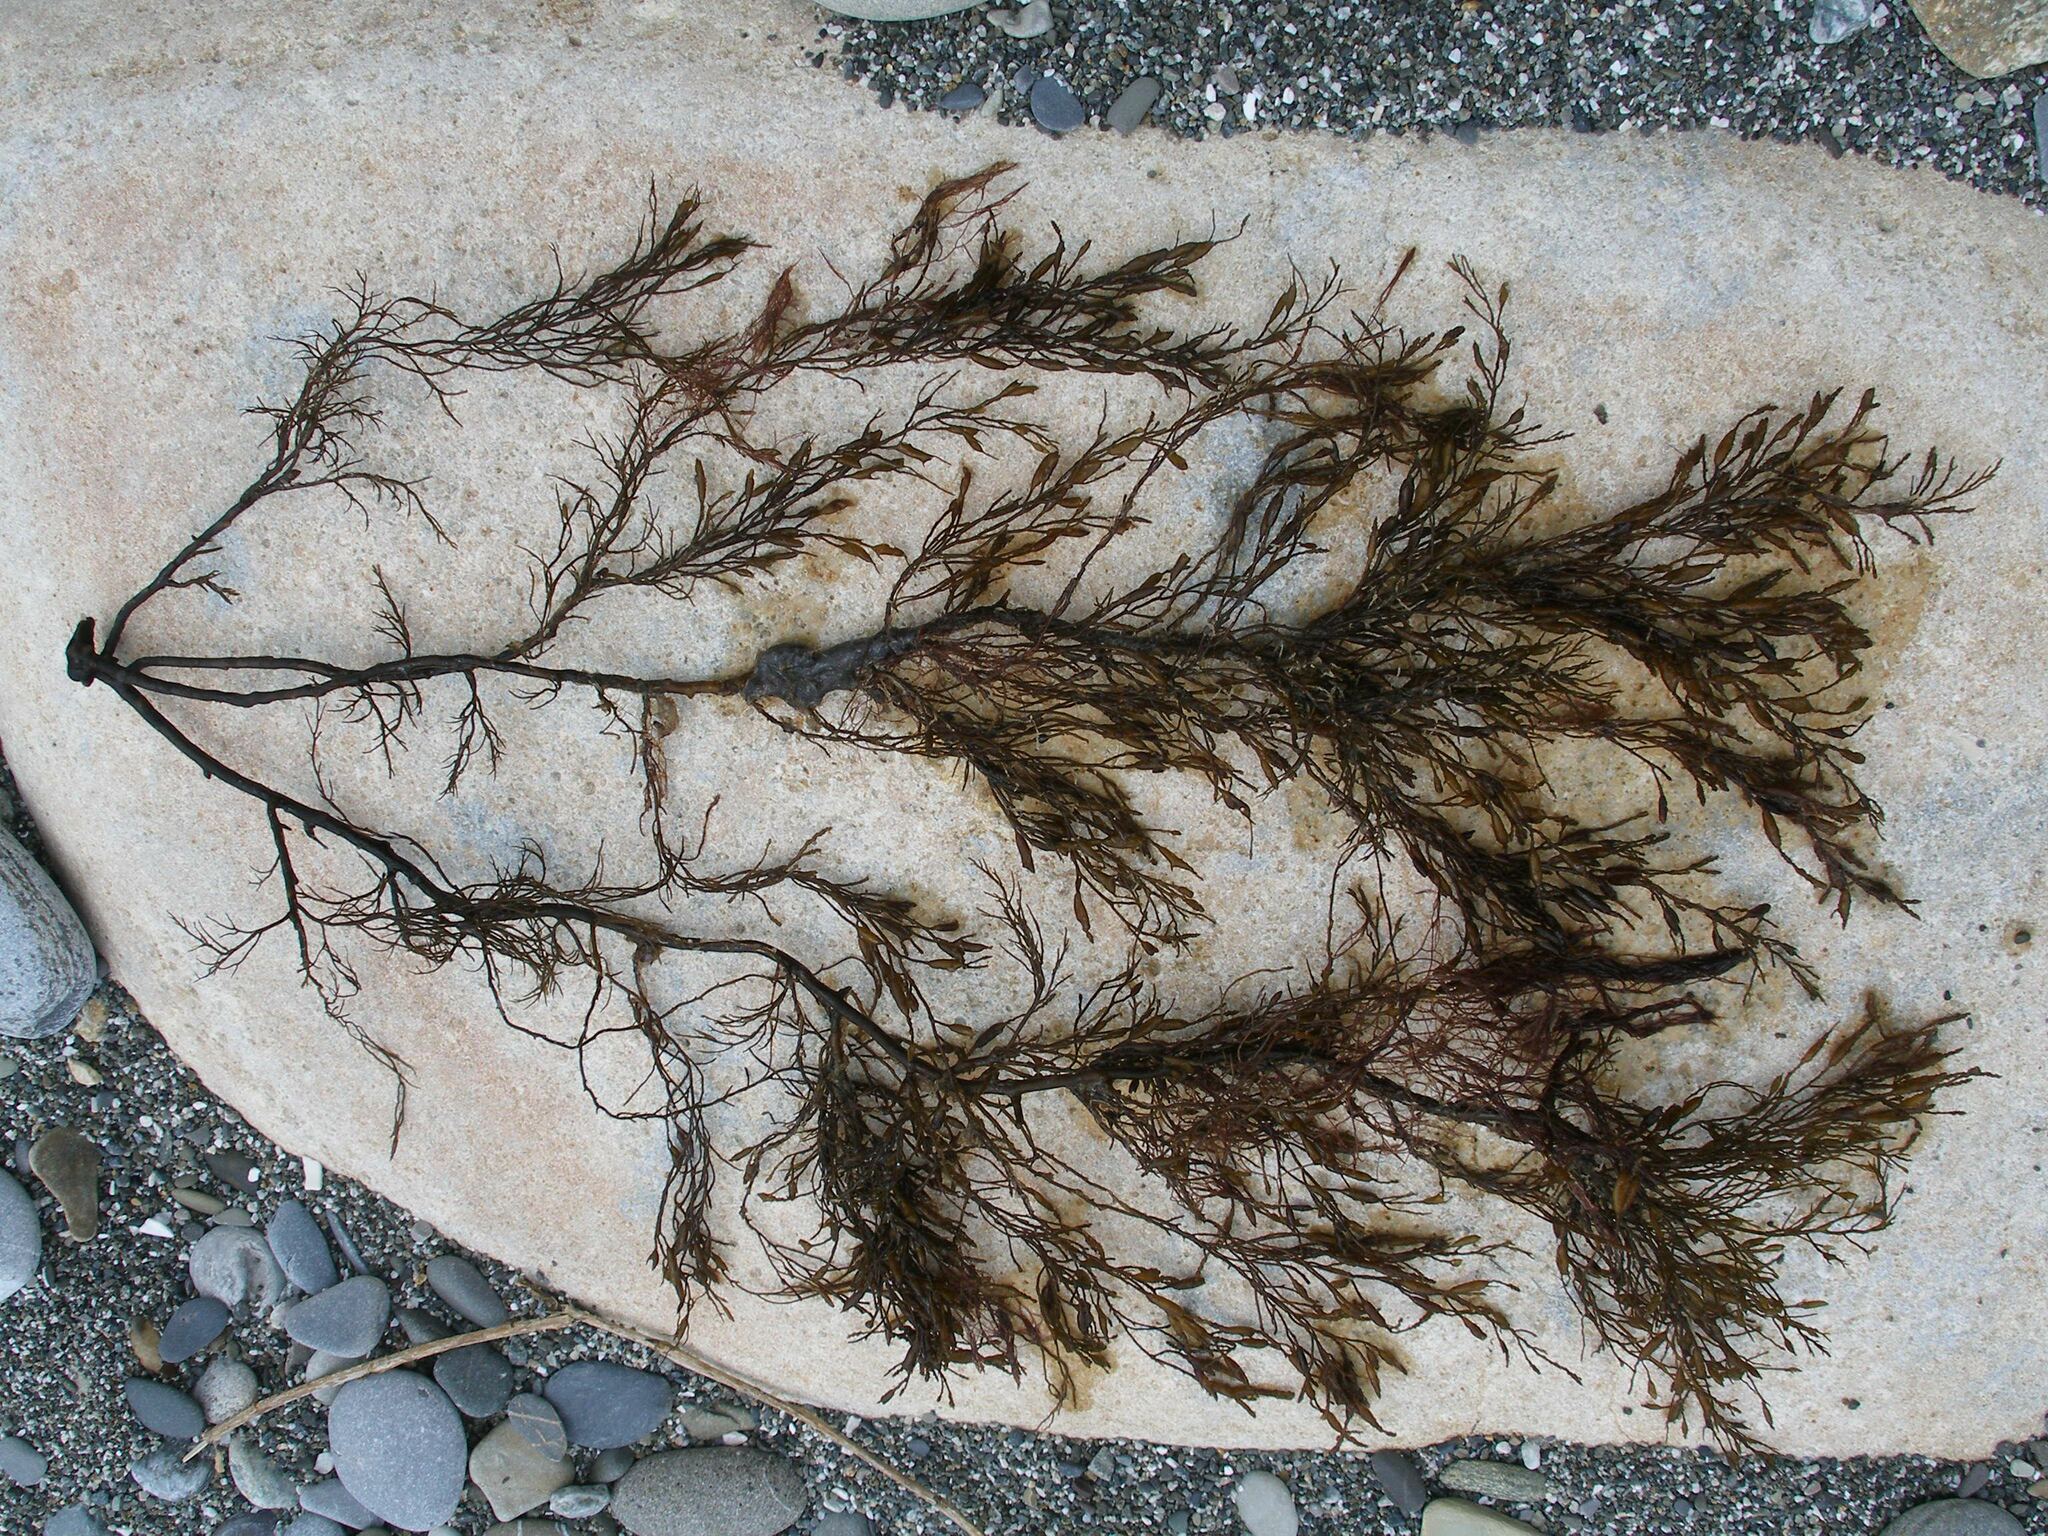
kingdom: Chromista
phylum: Ochrophyta
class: Phaeophyceae
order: Fucales
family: Sargassaceae
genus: Cystoseira
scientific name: Cystoseira Gongolaria barbata
